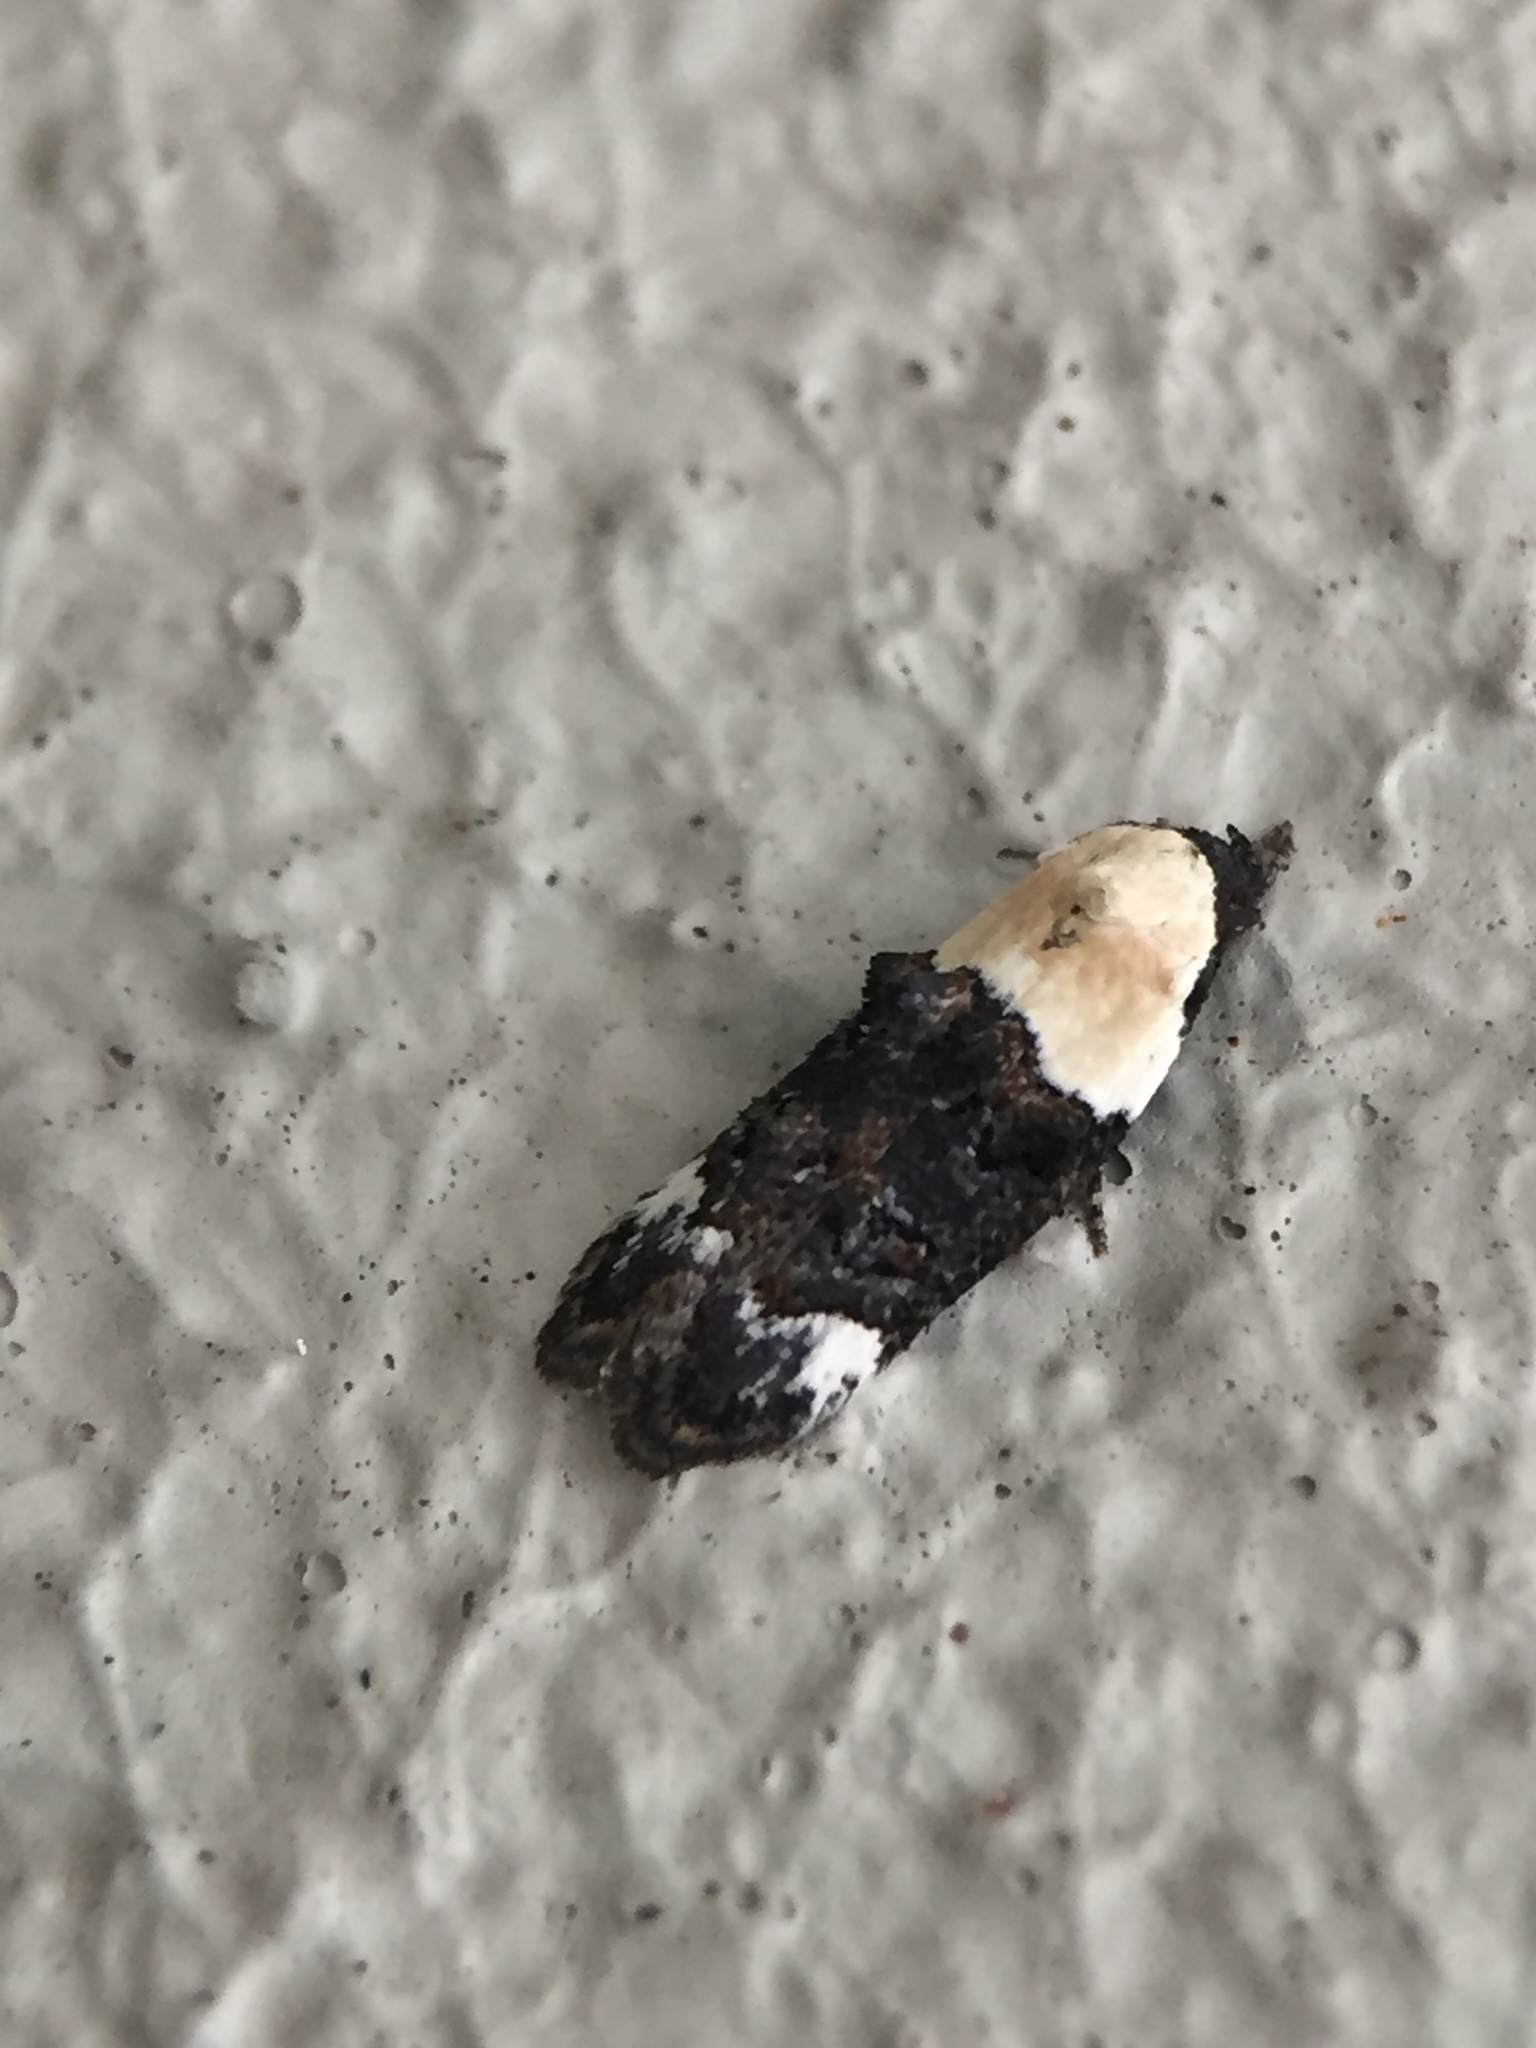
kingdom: Animalia
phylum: Arthropoda
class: Insecta
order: Lepidoptera
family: Oecophoridae
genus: Trachypepla
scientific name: Trachypepla euryleucota
